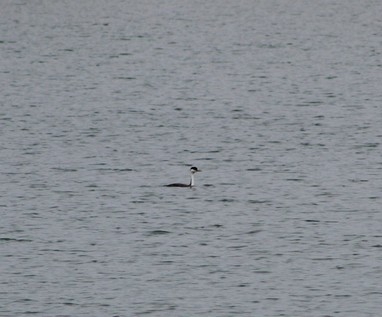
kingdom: Animalia
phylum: Chordata
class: Aves
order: Podicipediformes
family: Podicipedidae
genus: Aechmophorus
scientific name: Aechmophorus occidentalis
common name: Western grebe
